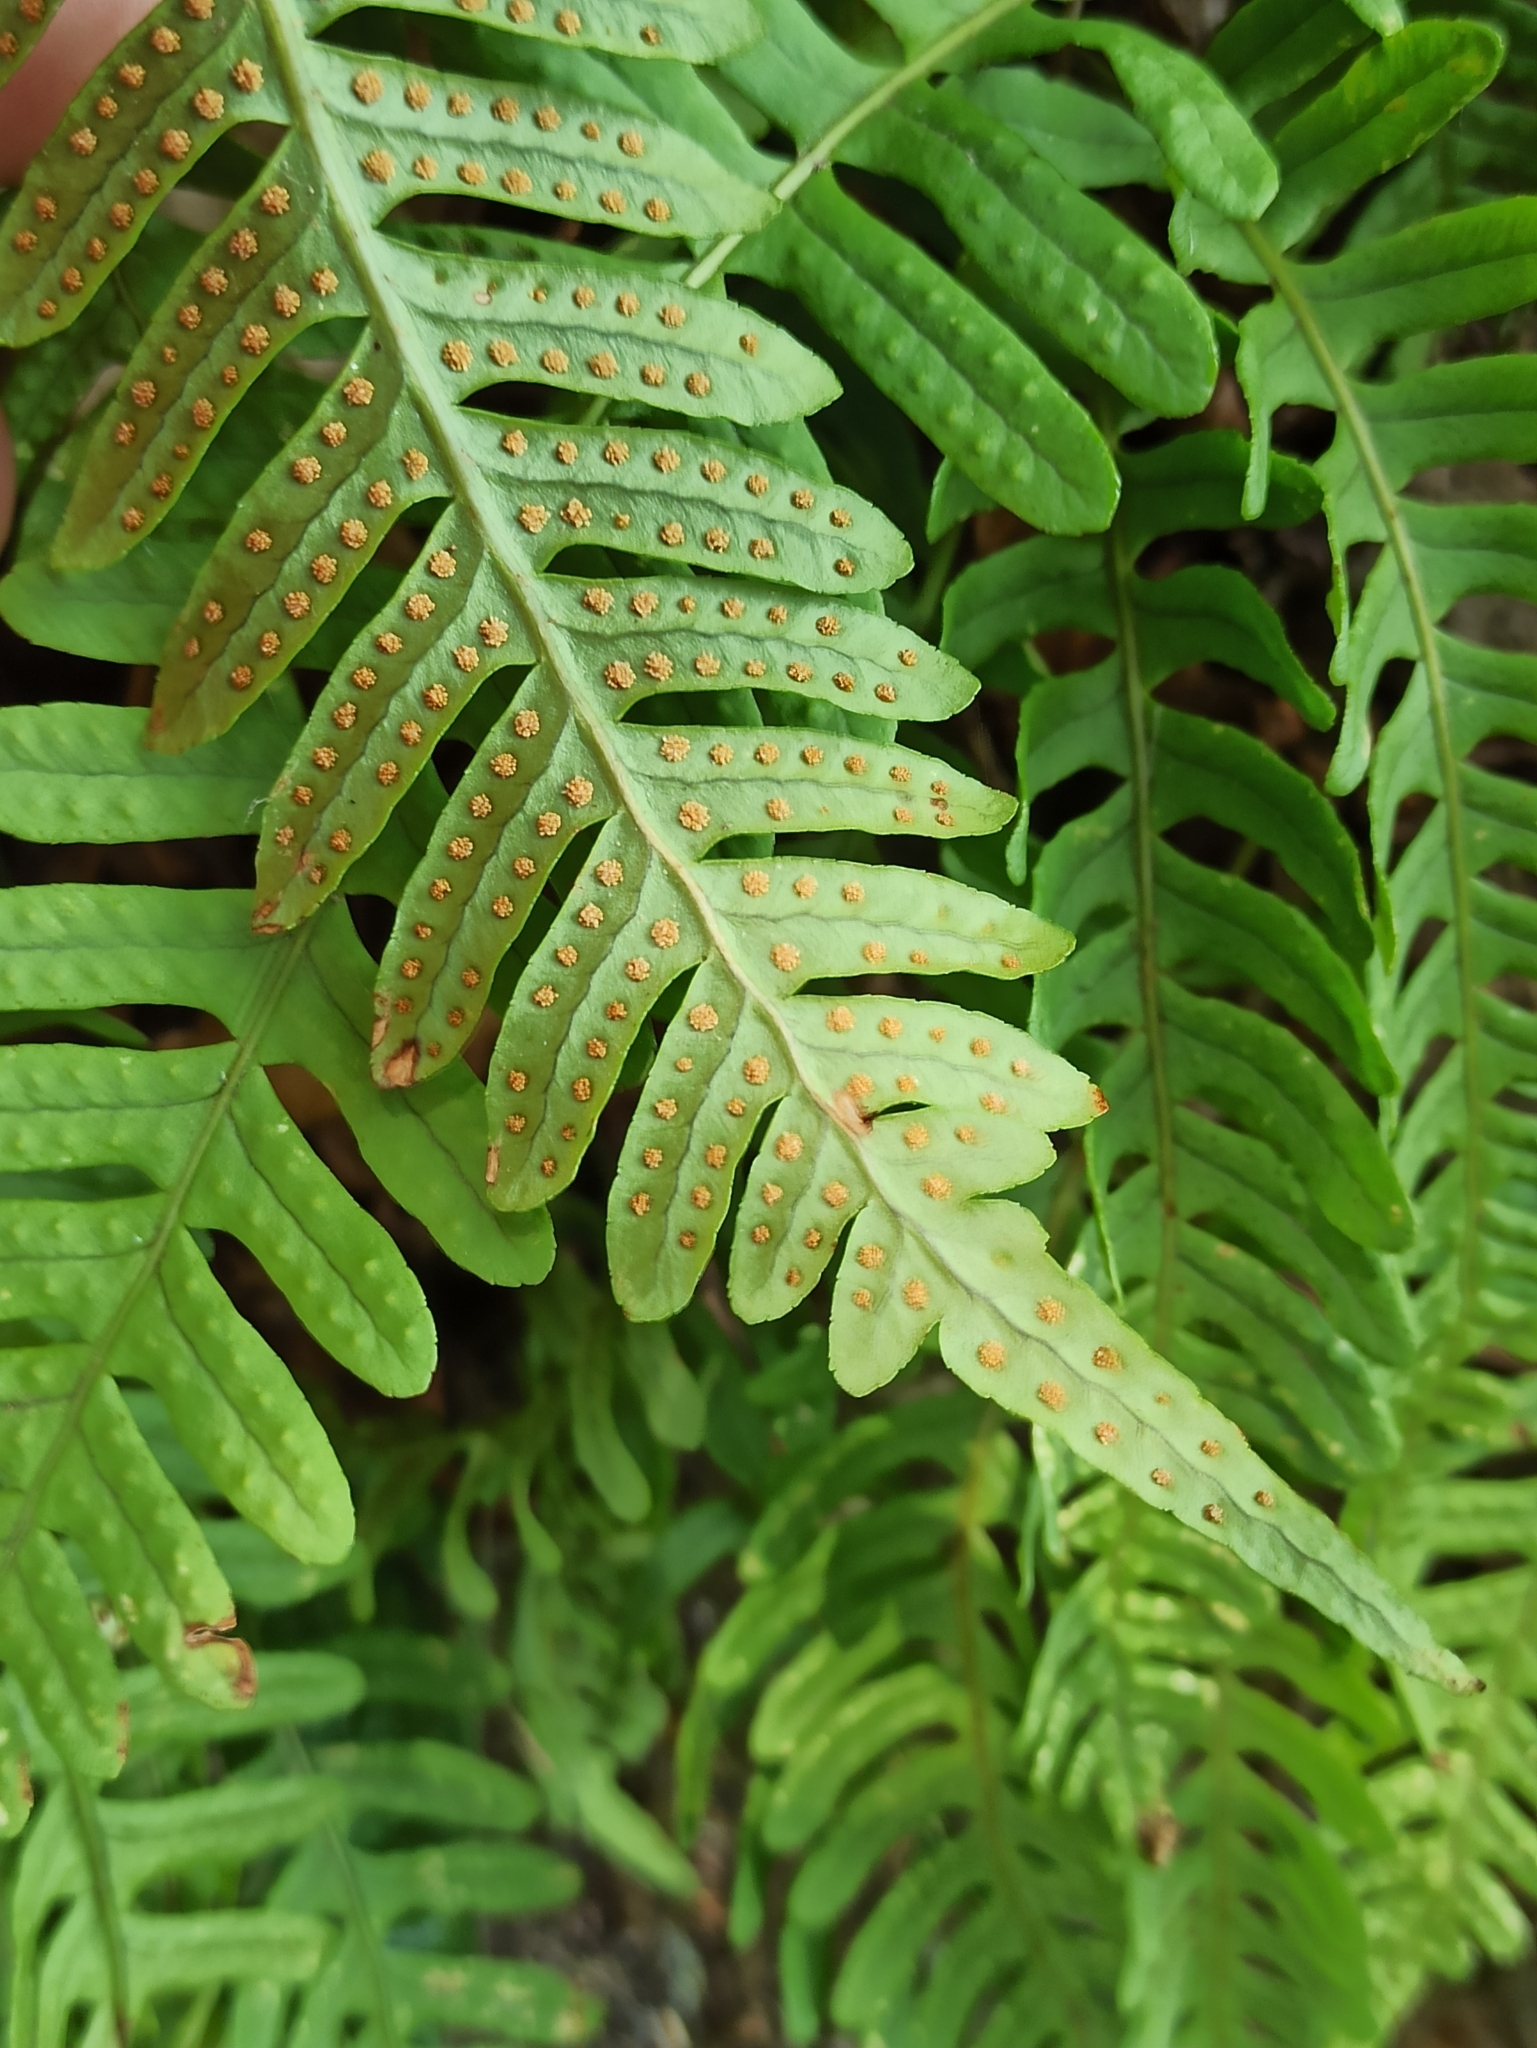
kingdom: Plantae
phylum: Tracheophyta
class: Polypodiopsida
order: Polypodiales
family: Polypodiaceae
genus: Polypodium
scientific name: Polypodium vulgare
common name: Common polypody
